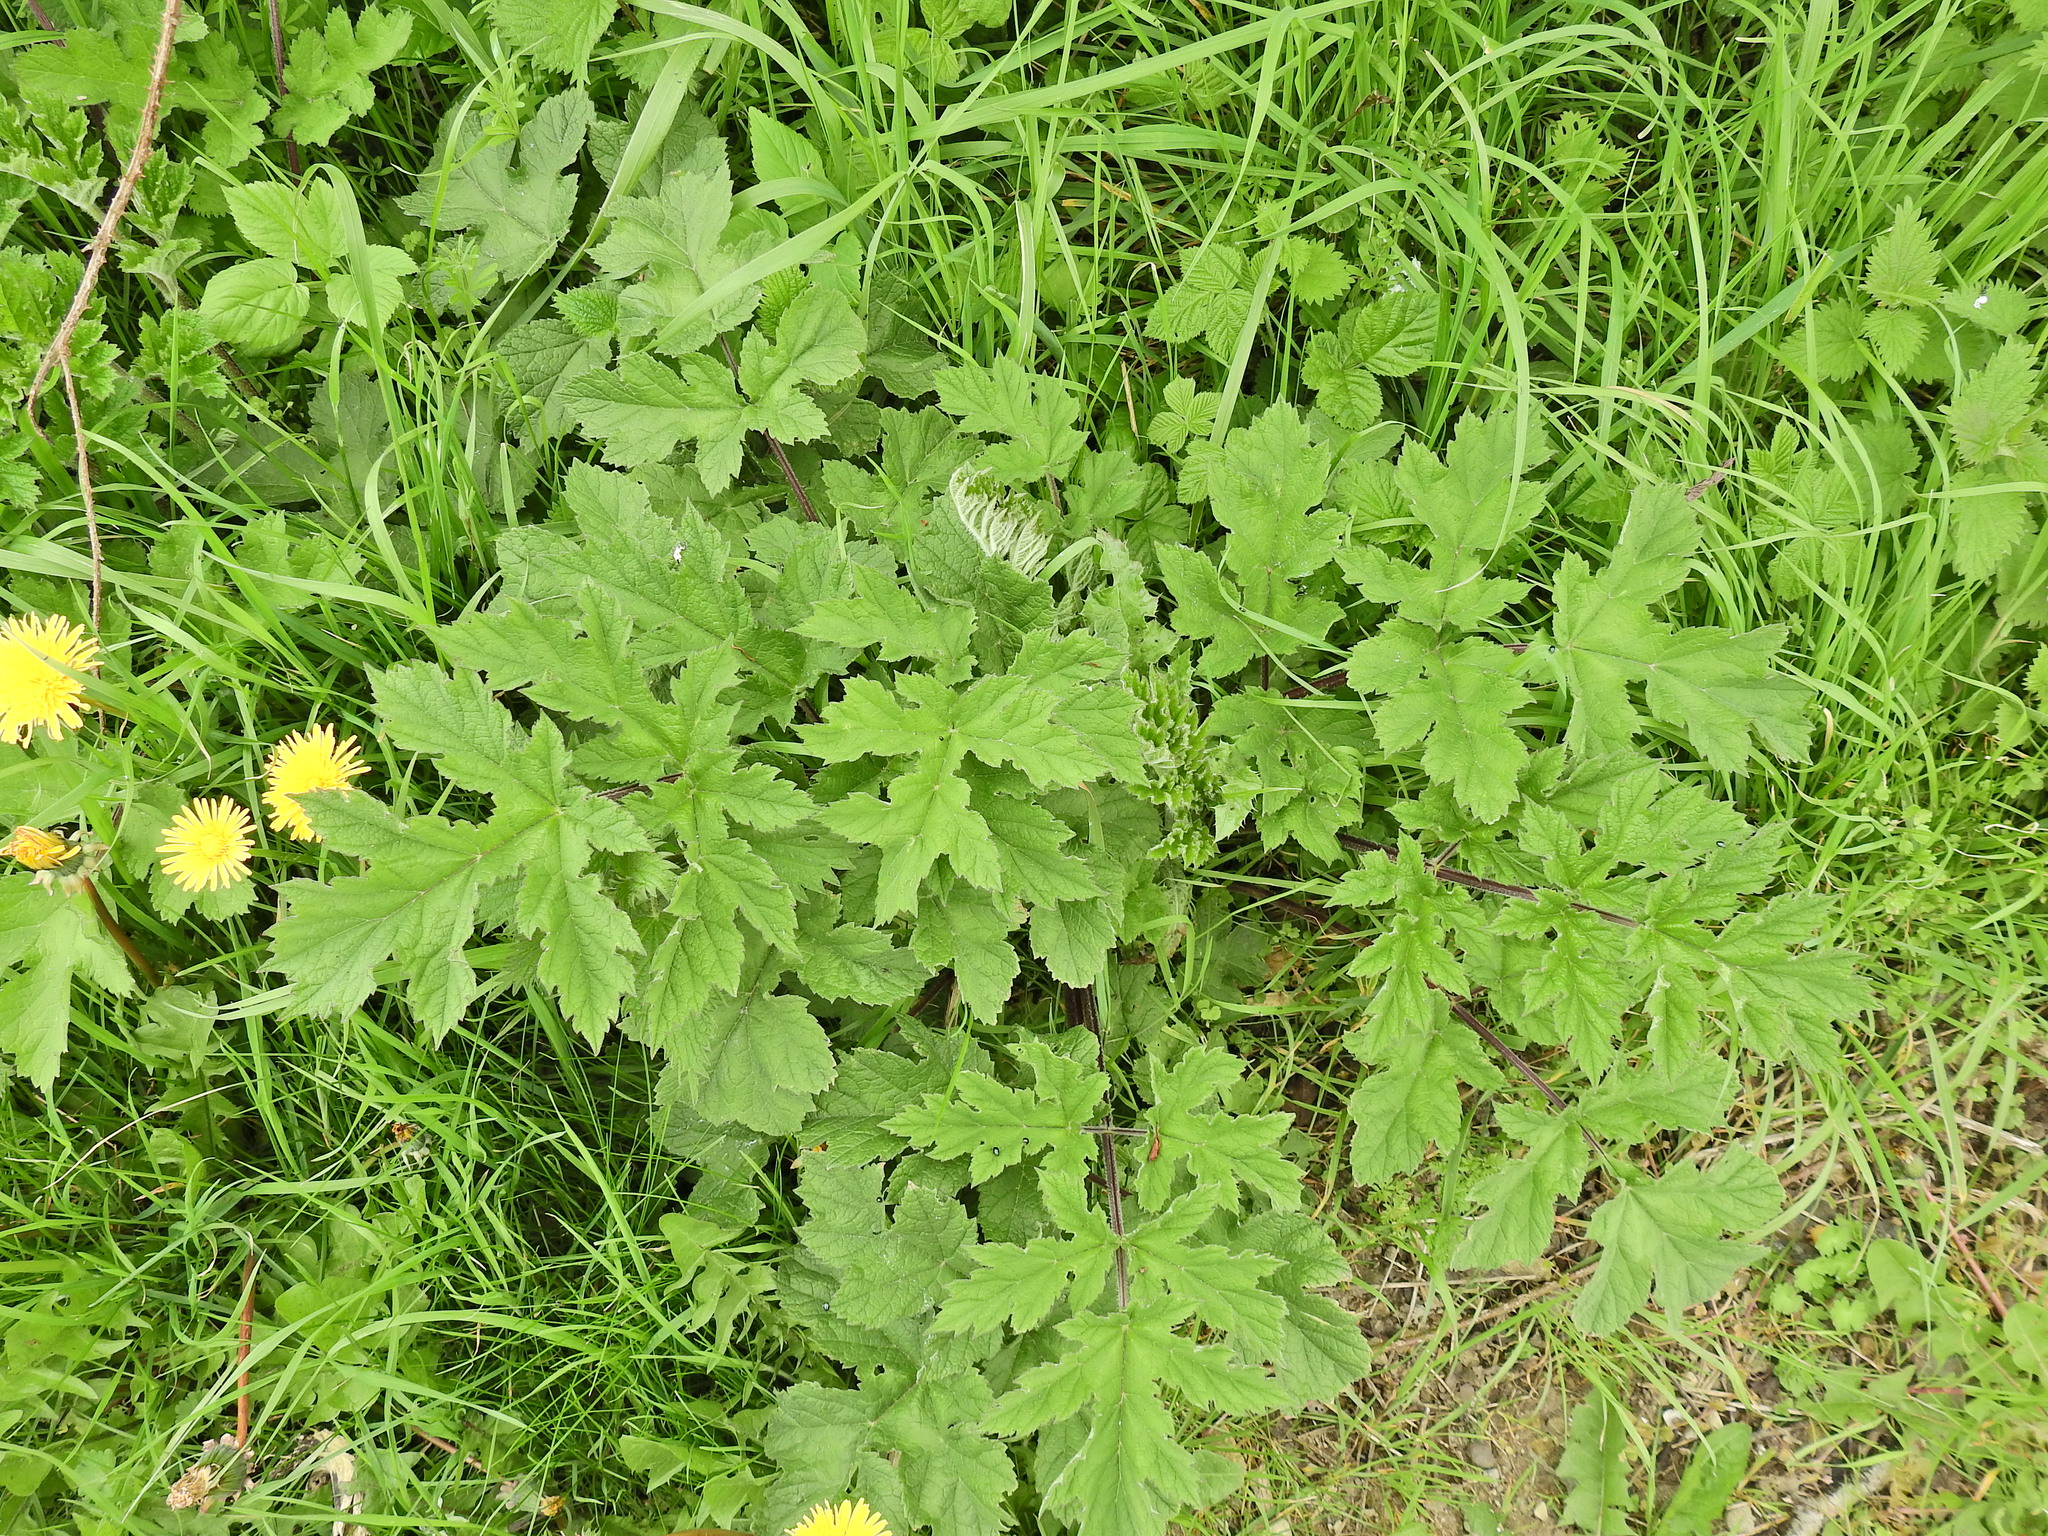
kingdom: Plantae
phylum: Tracheophyta
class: Magnoliopsida
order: Apiales
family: Apiaceae
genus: Heracleum
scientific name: Heracleum sphondylium
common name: Hogweed
